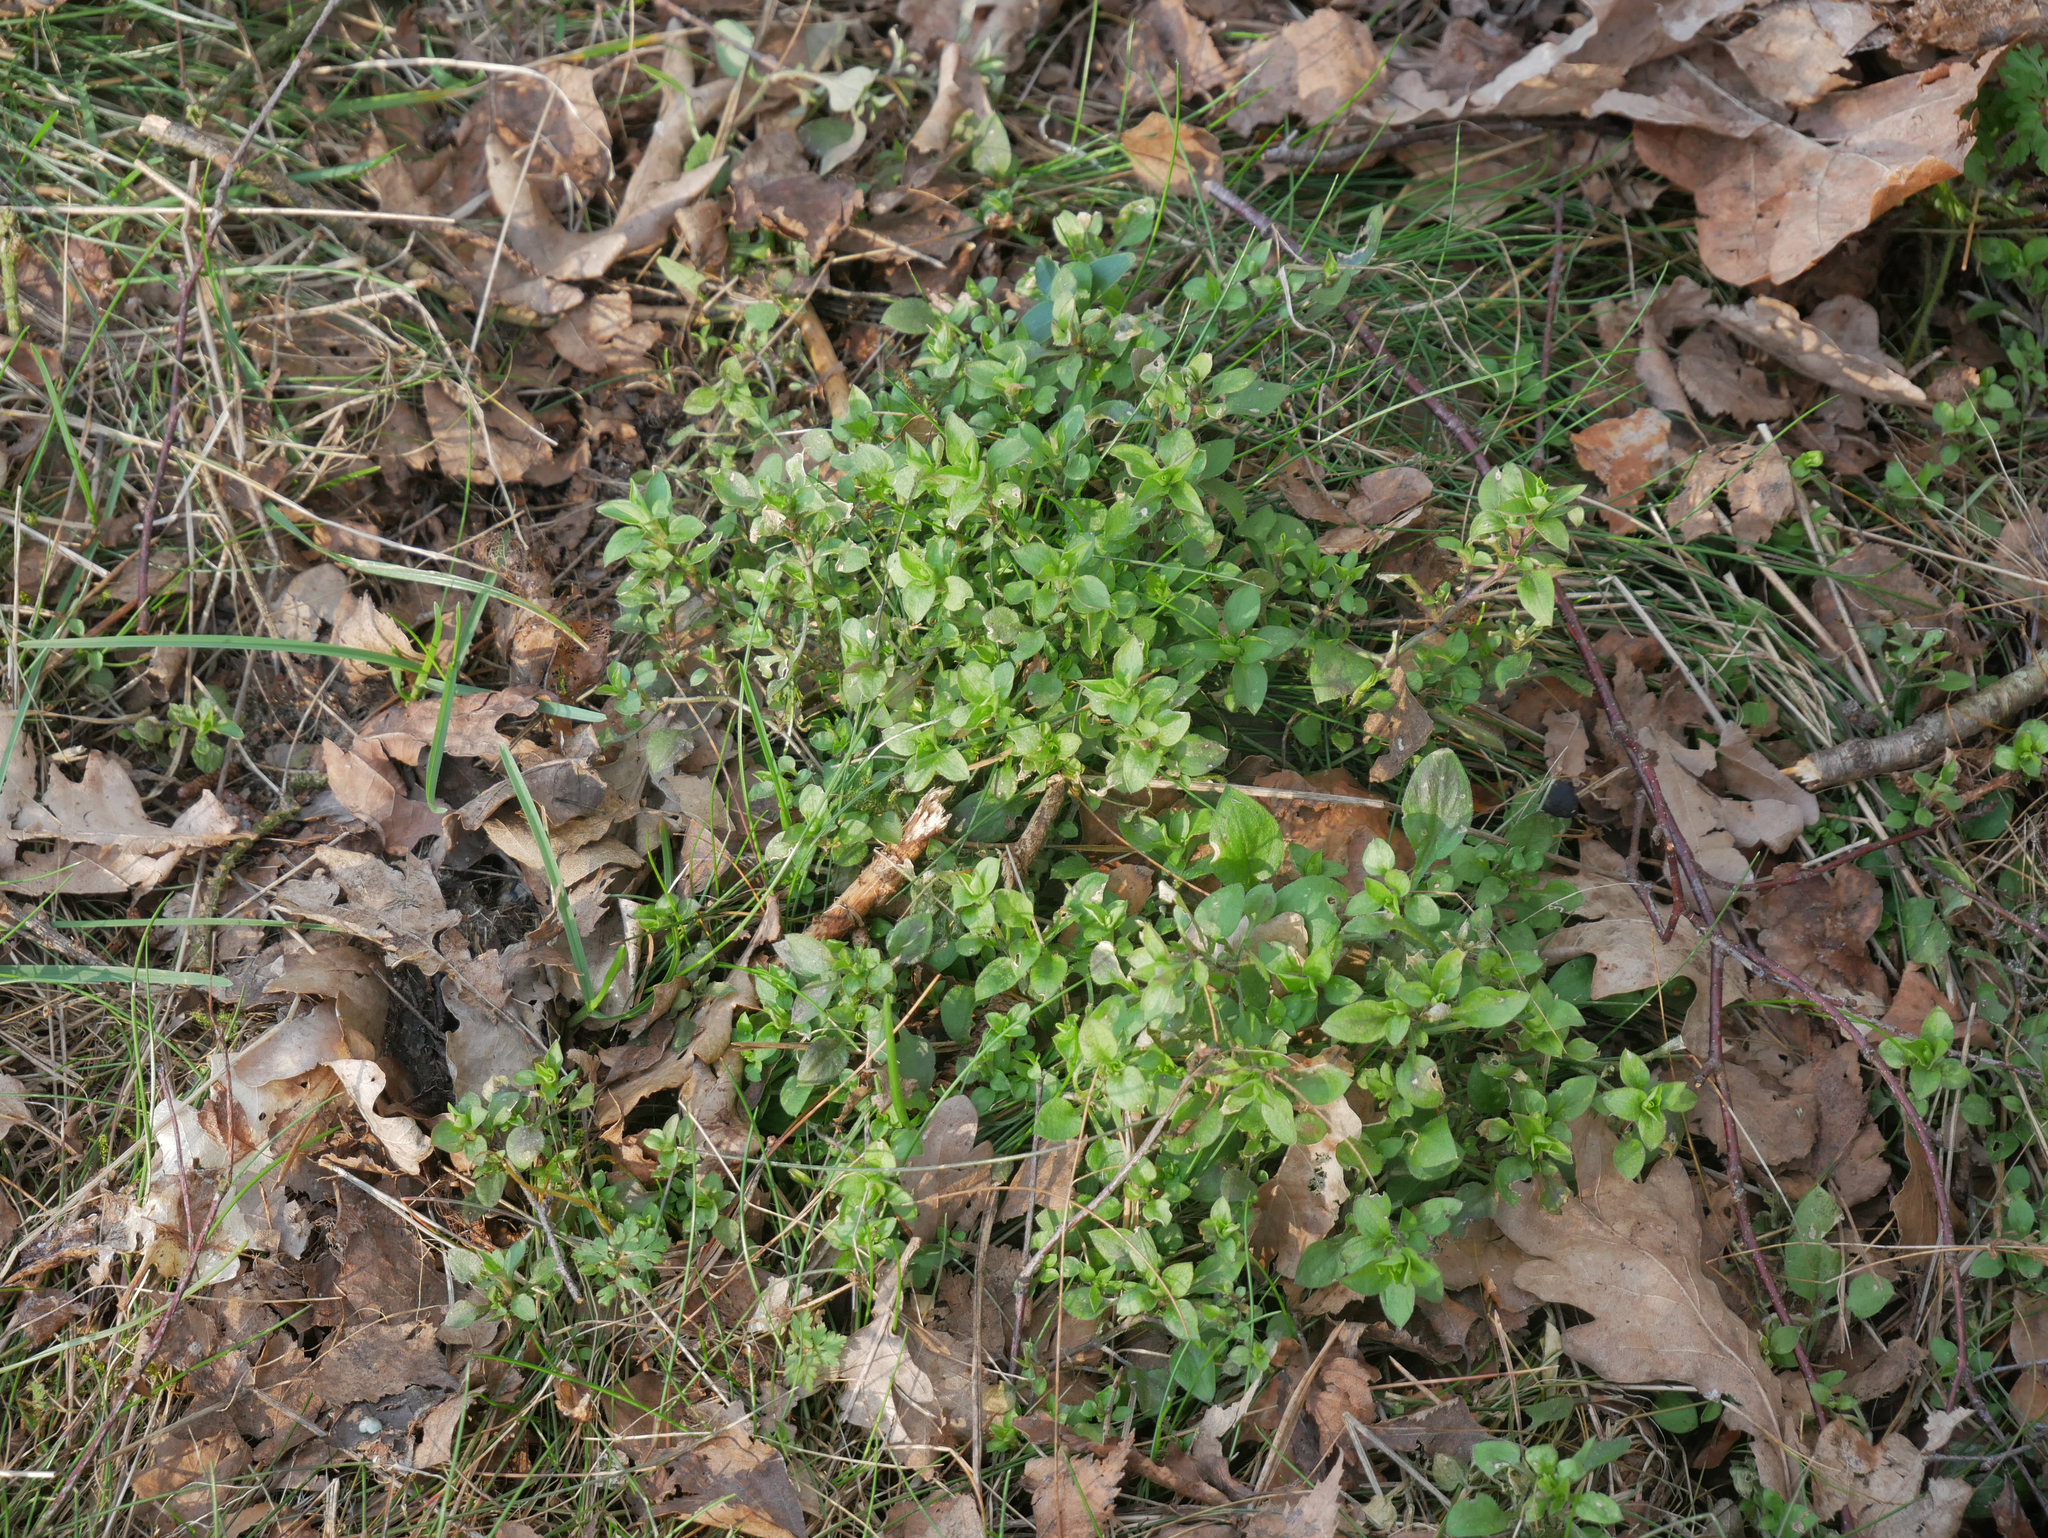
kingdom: Plantae
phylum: Tracheophyta
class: Magnoliopsida
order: Caryophyllales
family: Caryophyllaceae
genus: Moehringia
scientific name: Moehringia trinervia
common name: Three-nerved sandwort
